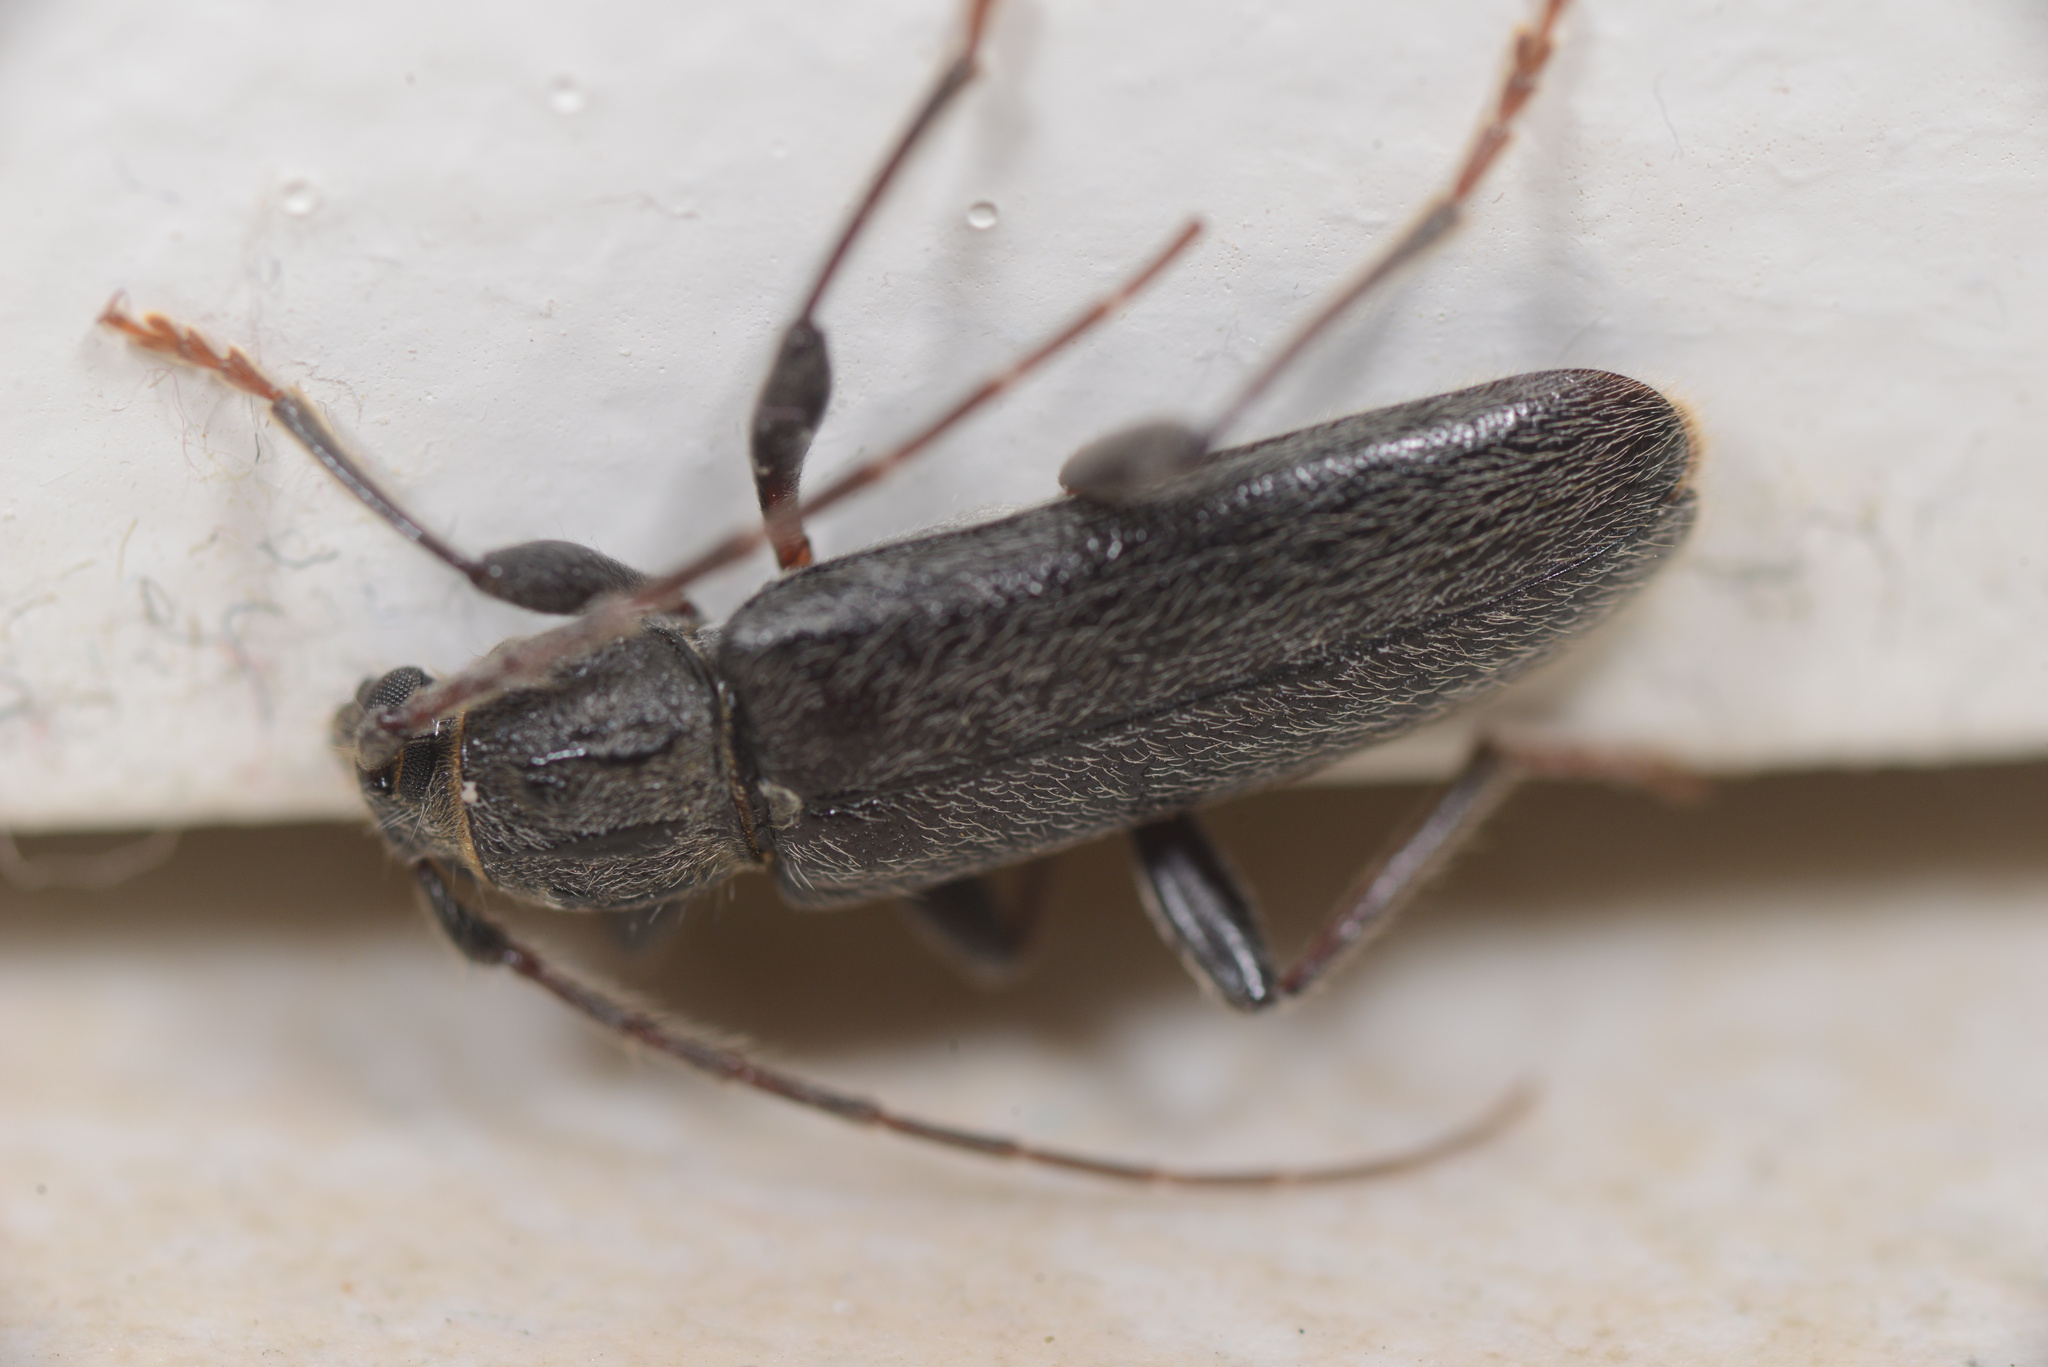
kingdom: Animalia
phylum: Arthropoda
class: Insecta
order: Coleoptera
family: Cerambycidae
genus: Liogramma
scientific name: Liogramma zelandica
